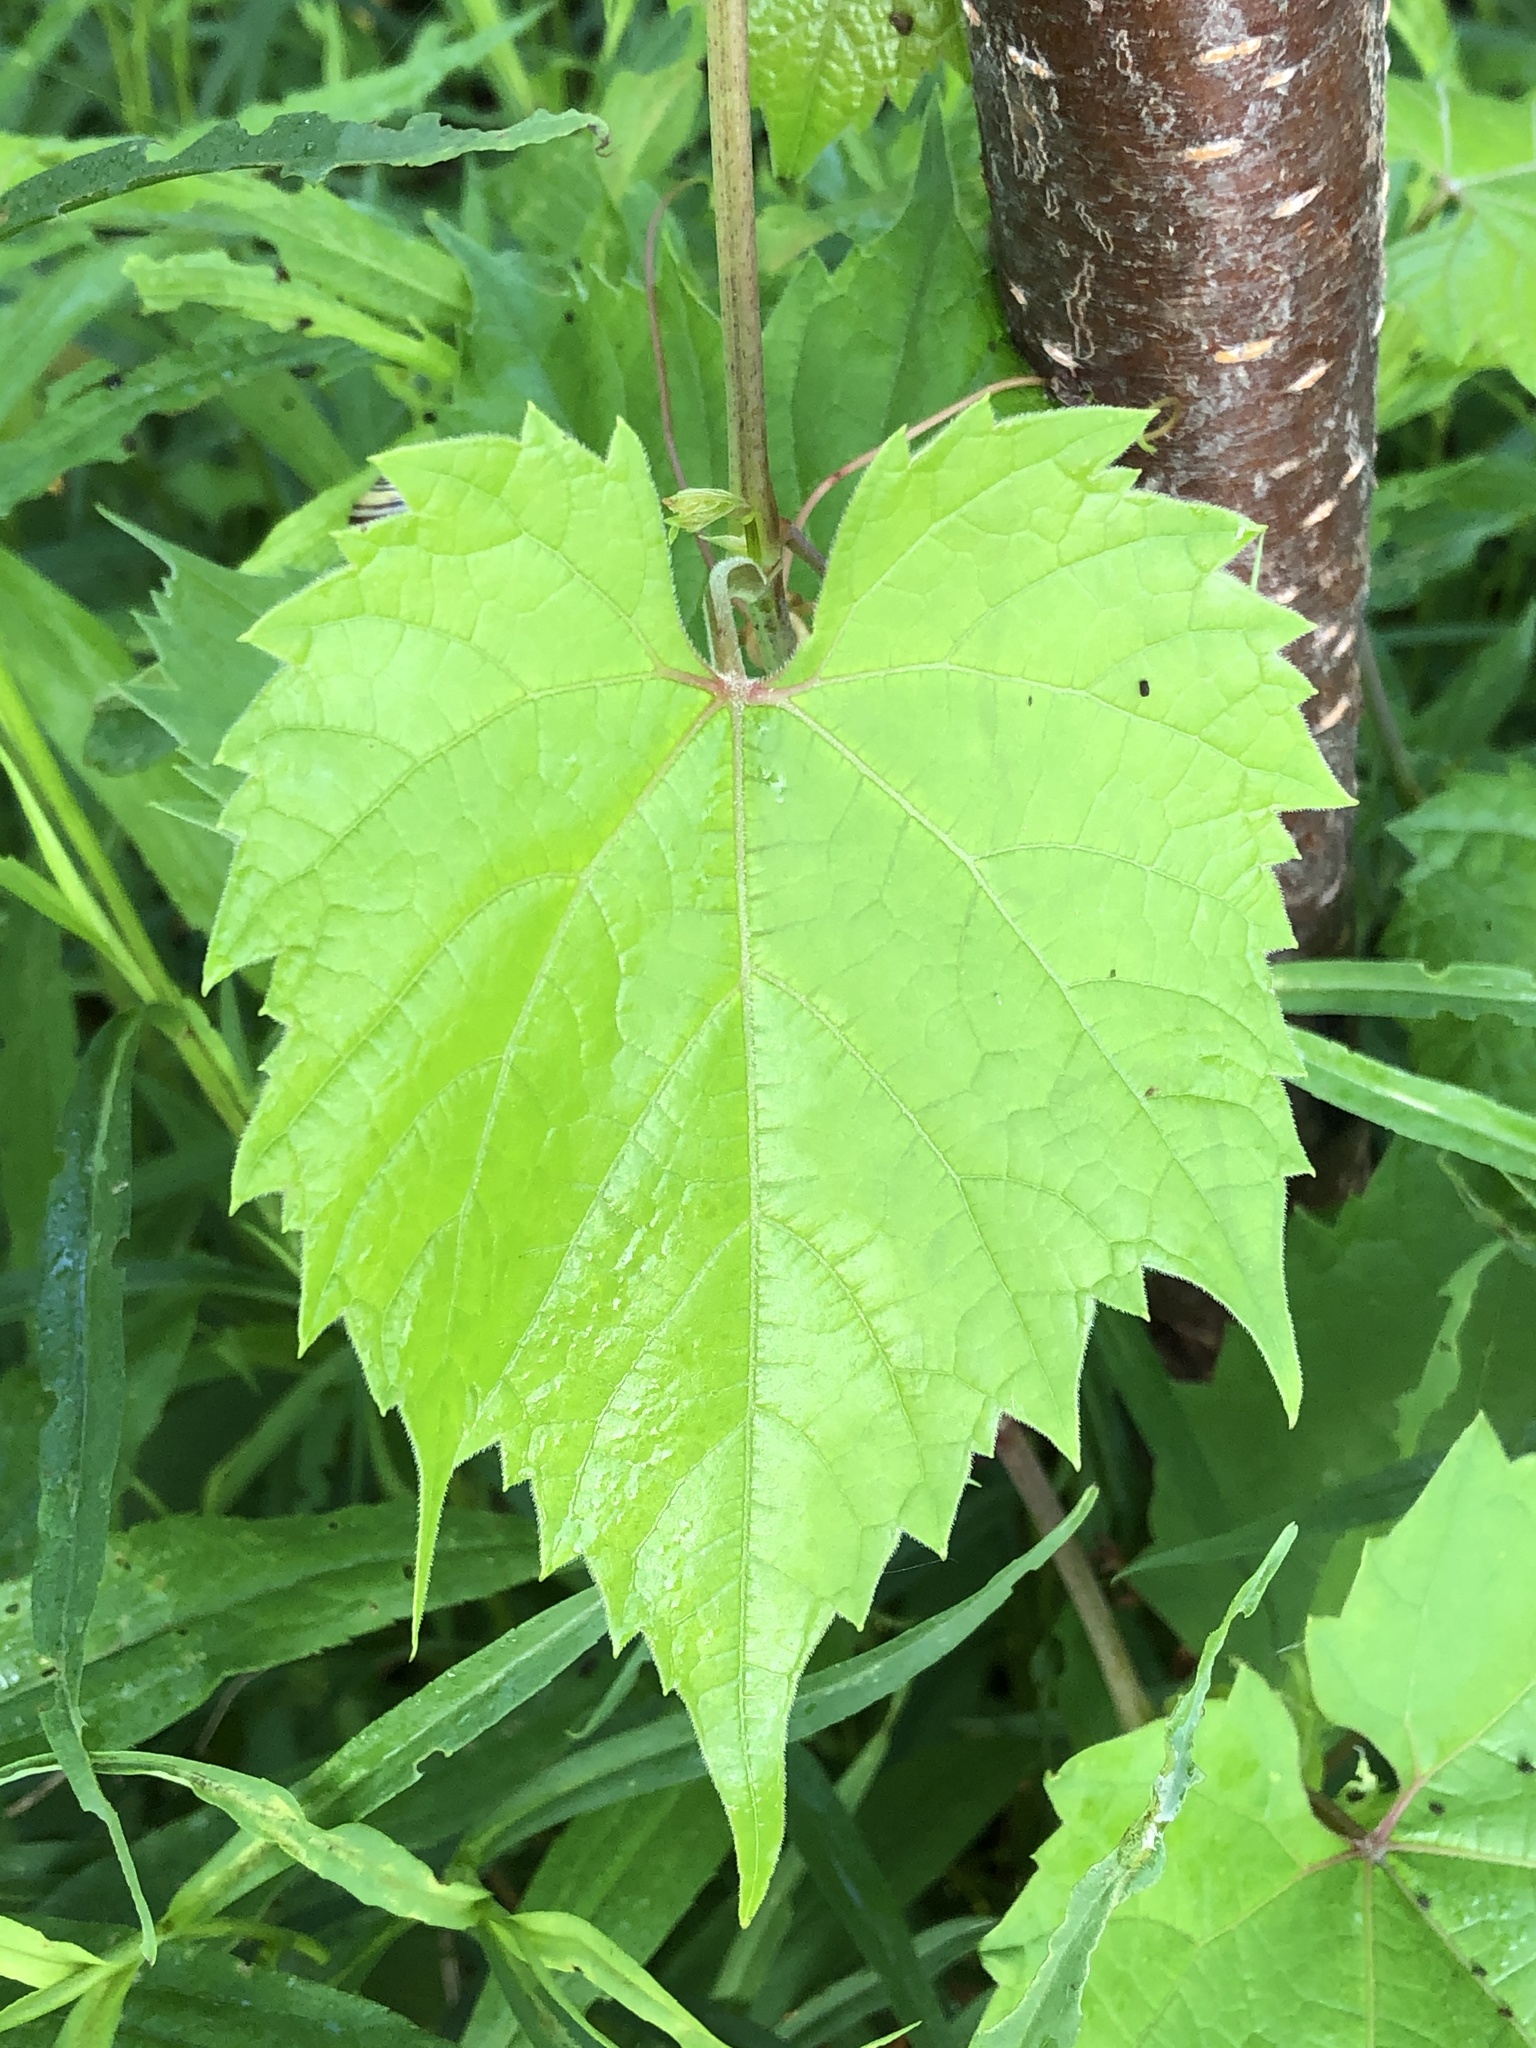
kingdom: Plantae
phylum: Tracheophyta
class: Magnoliopsida
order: Vitales
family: Vitaceae
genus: Vitis
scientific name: Vitis riparia
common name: Frost grape
